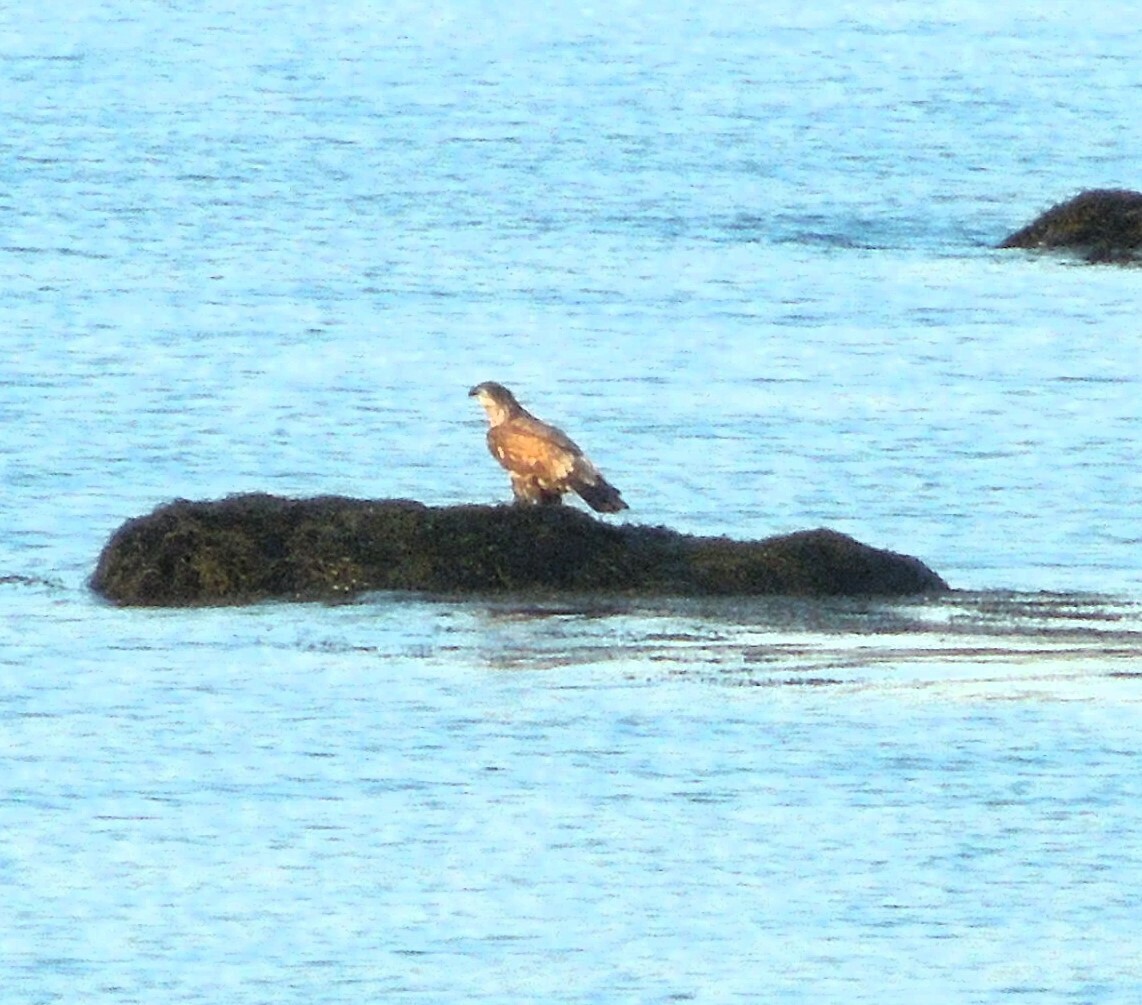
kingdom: Animalia
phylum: Chordata
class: Aves
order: Accipitriformes
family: Accipitridae
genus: Haliaeetus
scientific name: Haliaeetus leucocephalus
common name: Bald eagle
